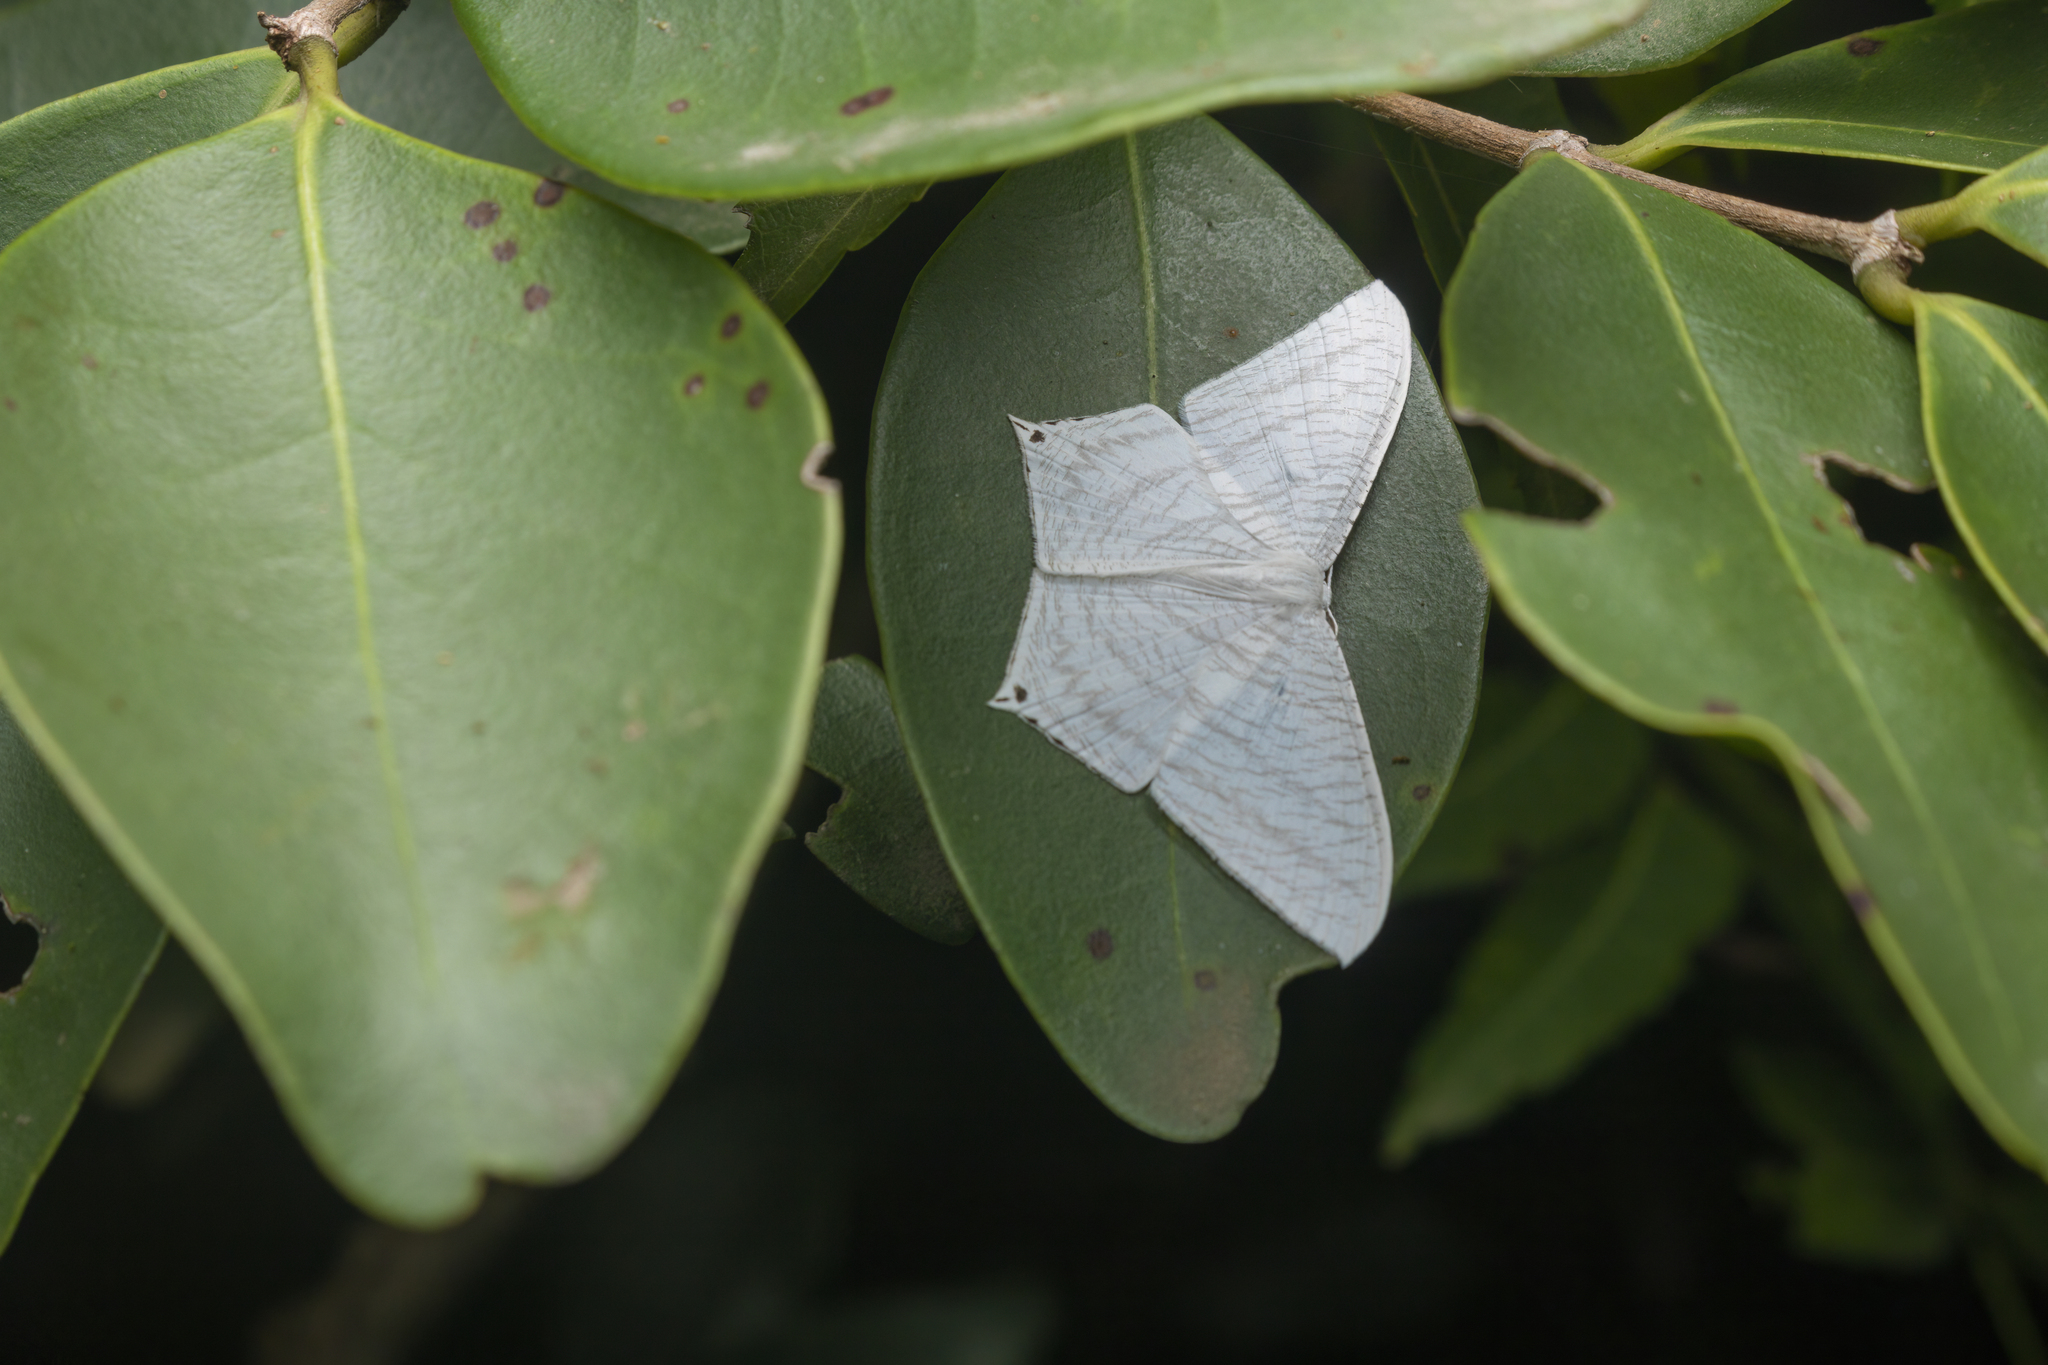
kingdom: Animalia
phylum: Arthropoda
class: Insecta
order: Lepidoptera
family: Uraniidae
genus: Micronia
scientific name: Micronia aculeata
